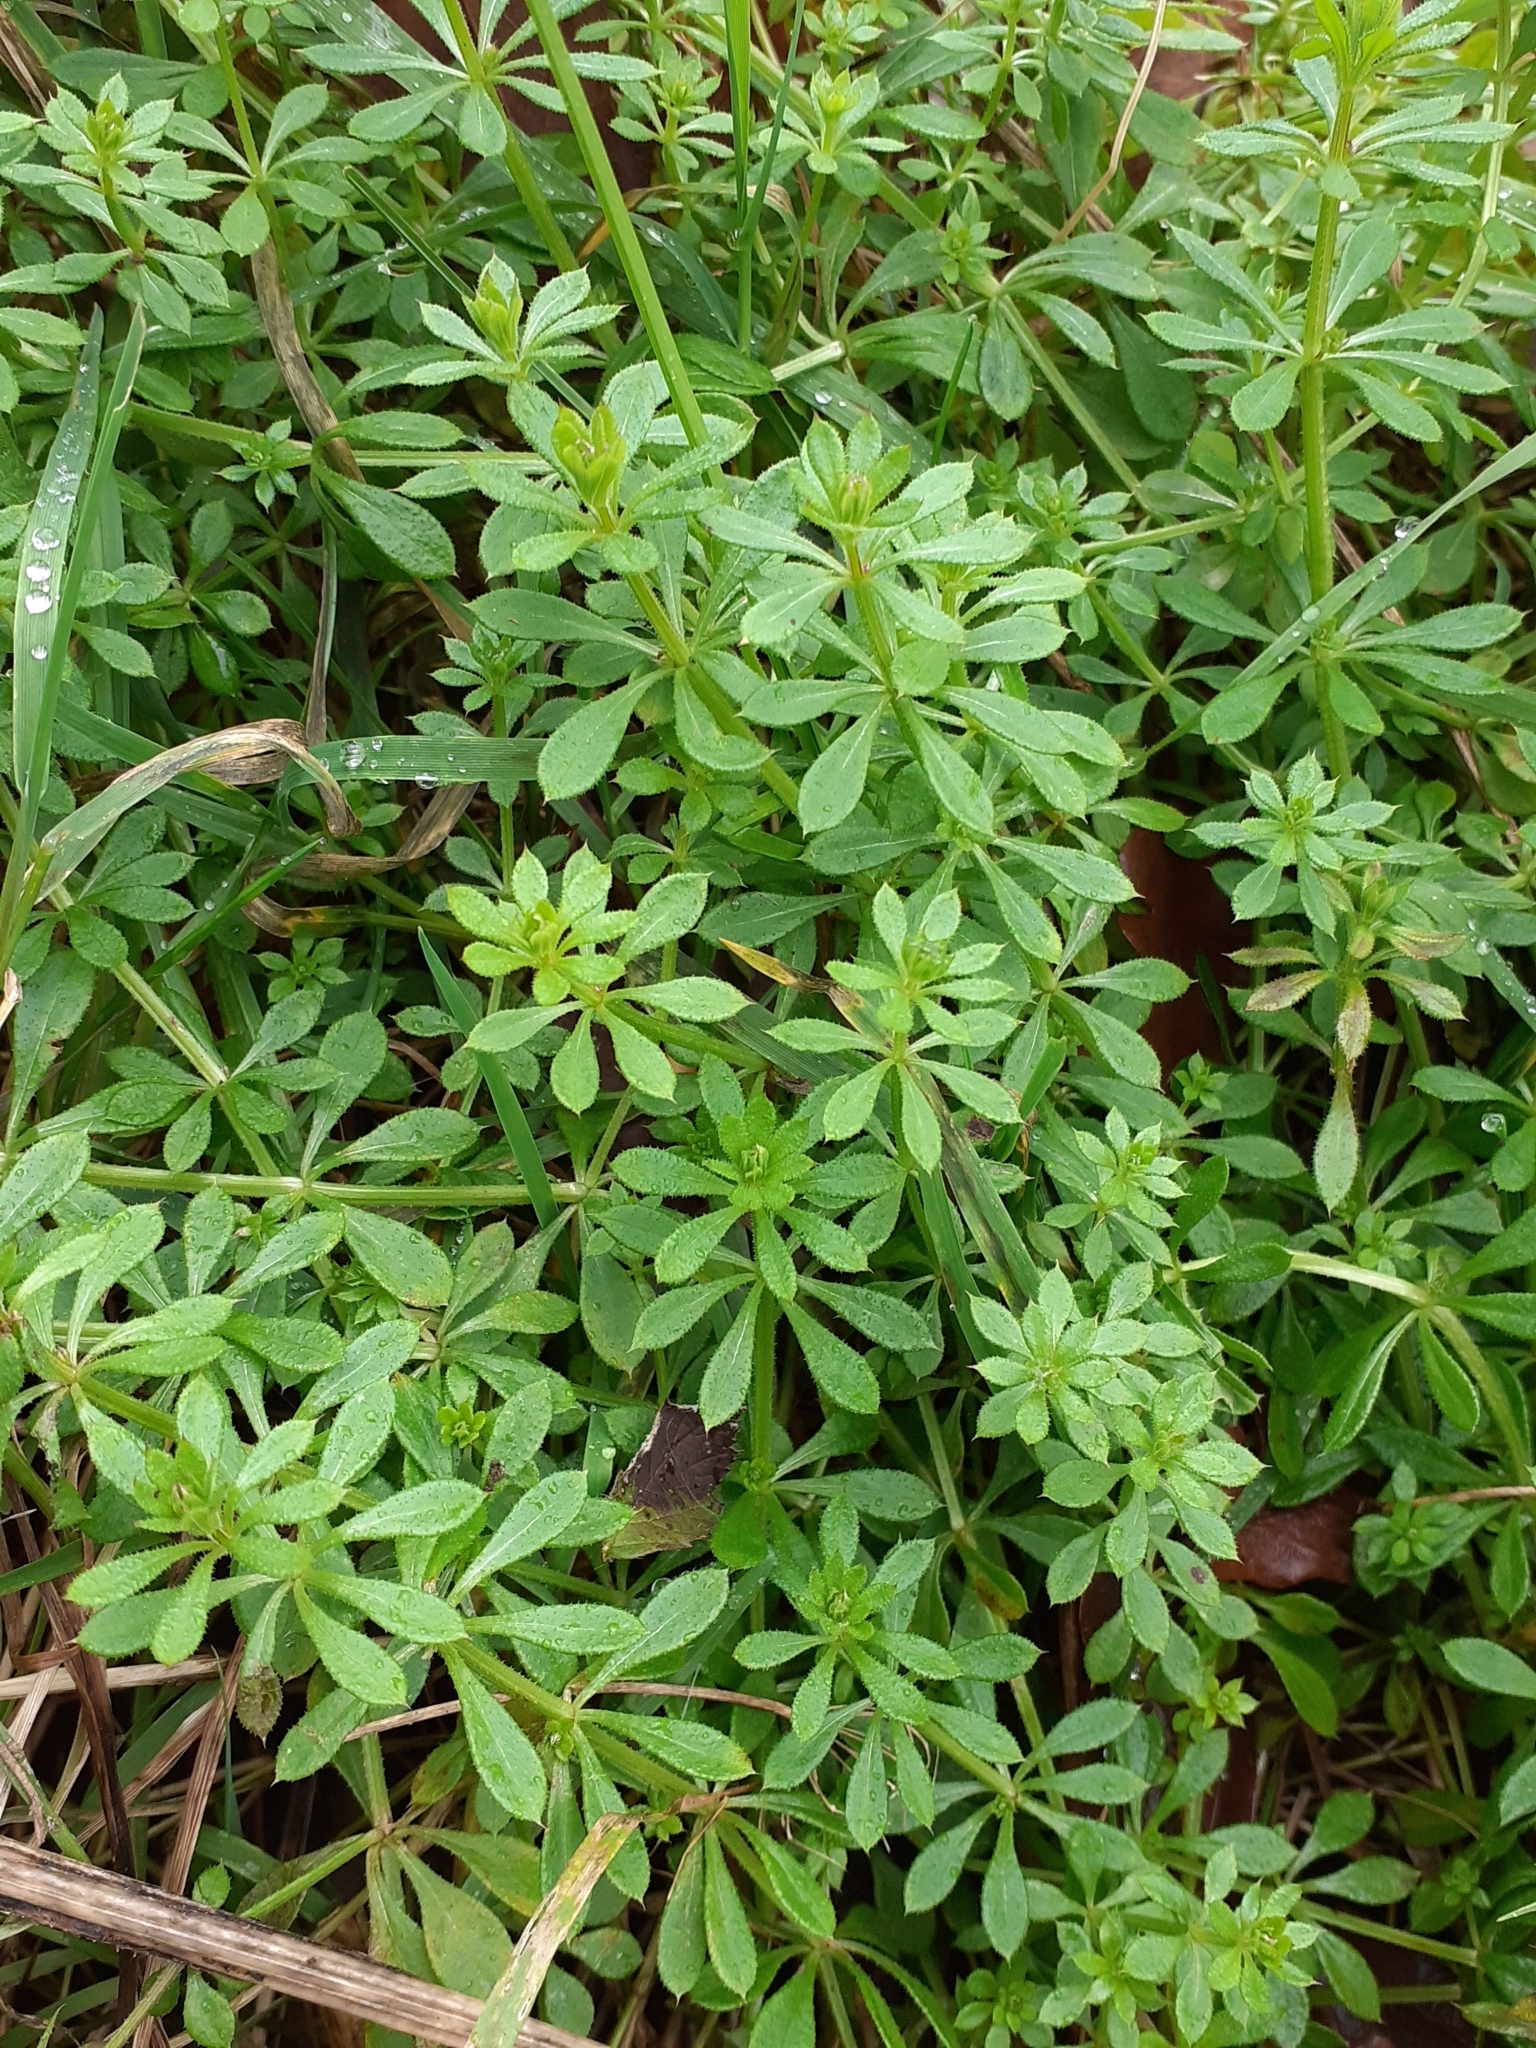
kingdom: Plantae
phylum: Tracheophyta
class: Magnoliopsida
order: Gentianales
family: Rubiaceae
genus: Galium
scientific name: Galium aparine
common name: Cleavers
